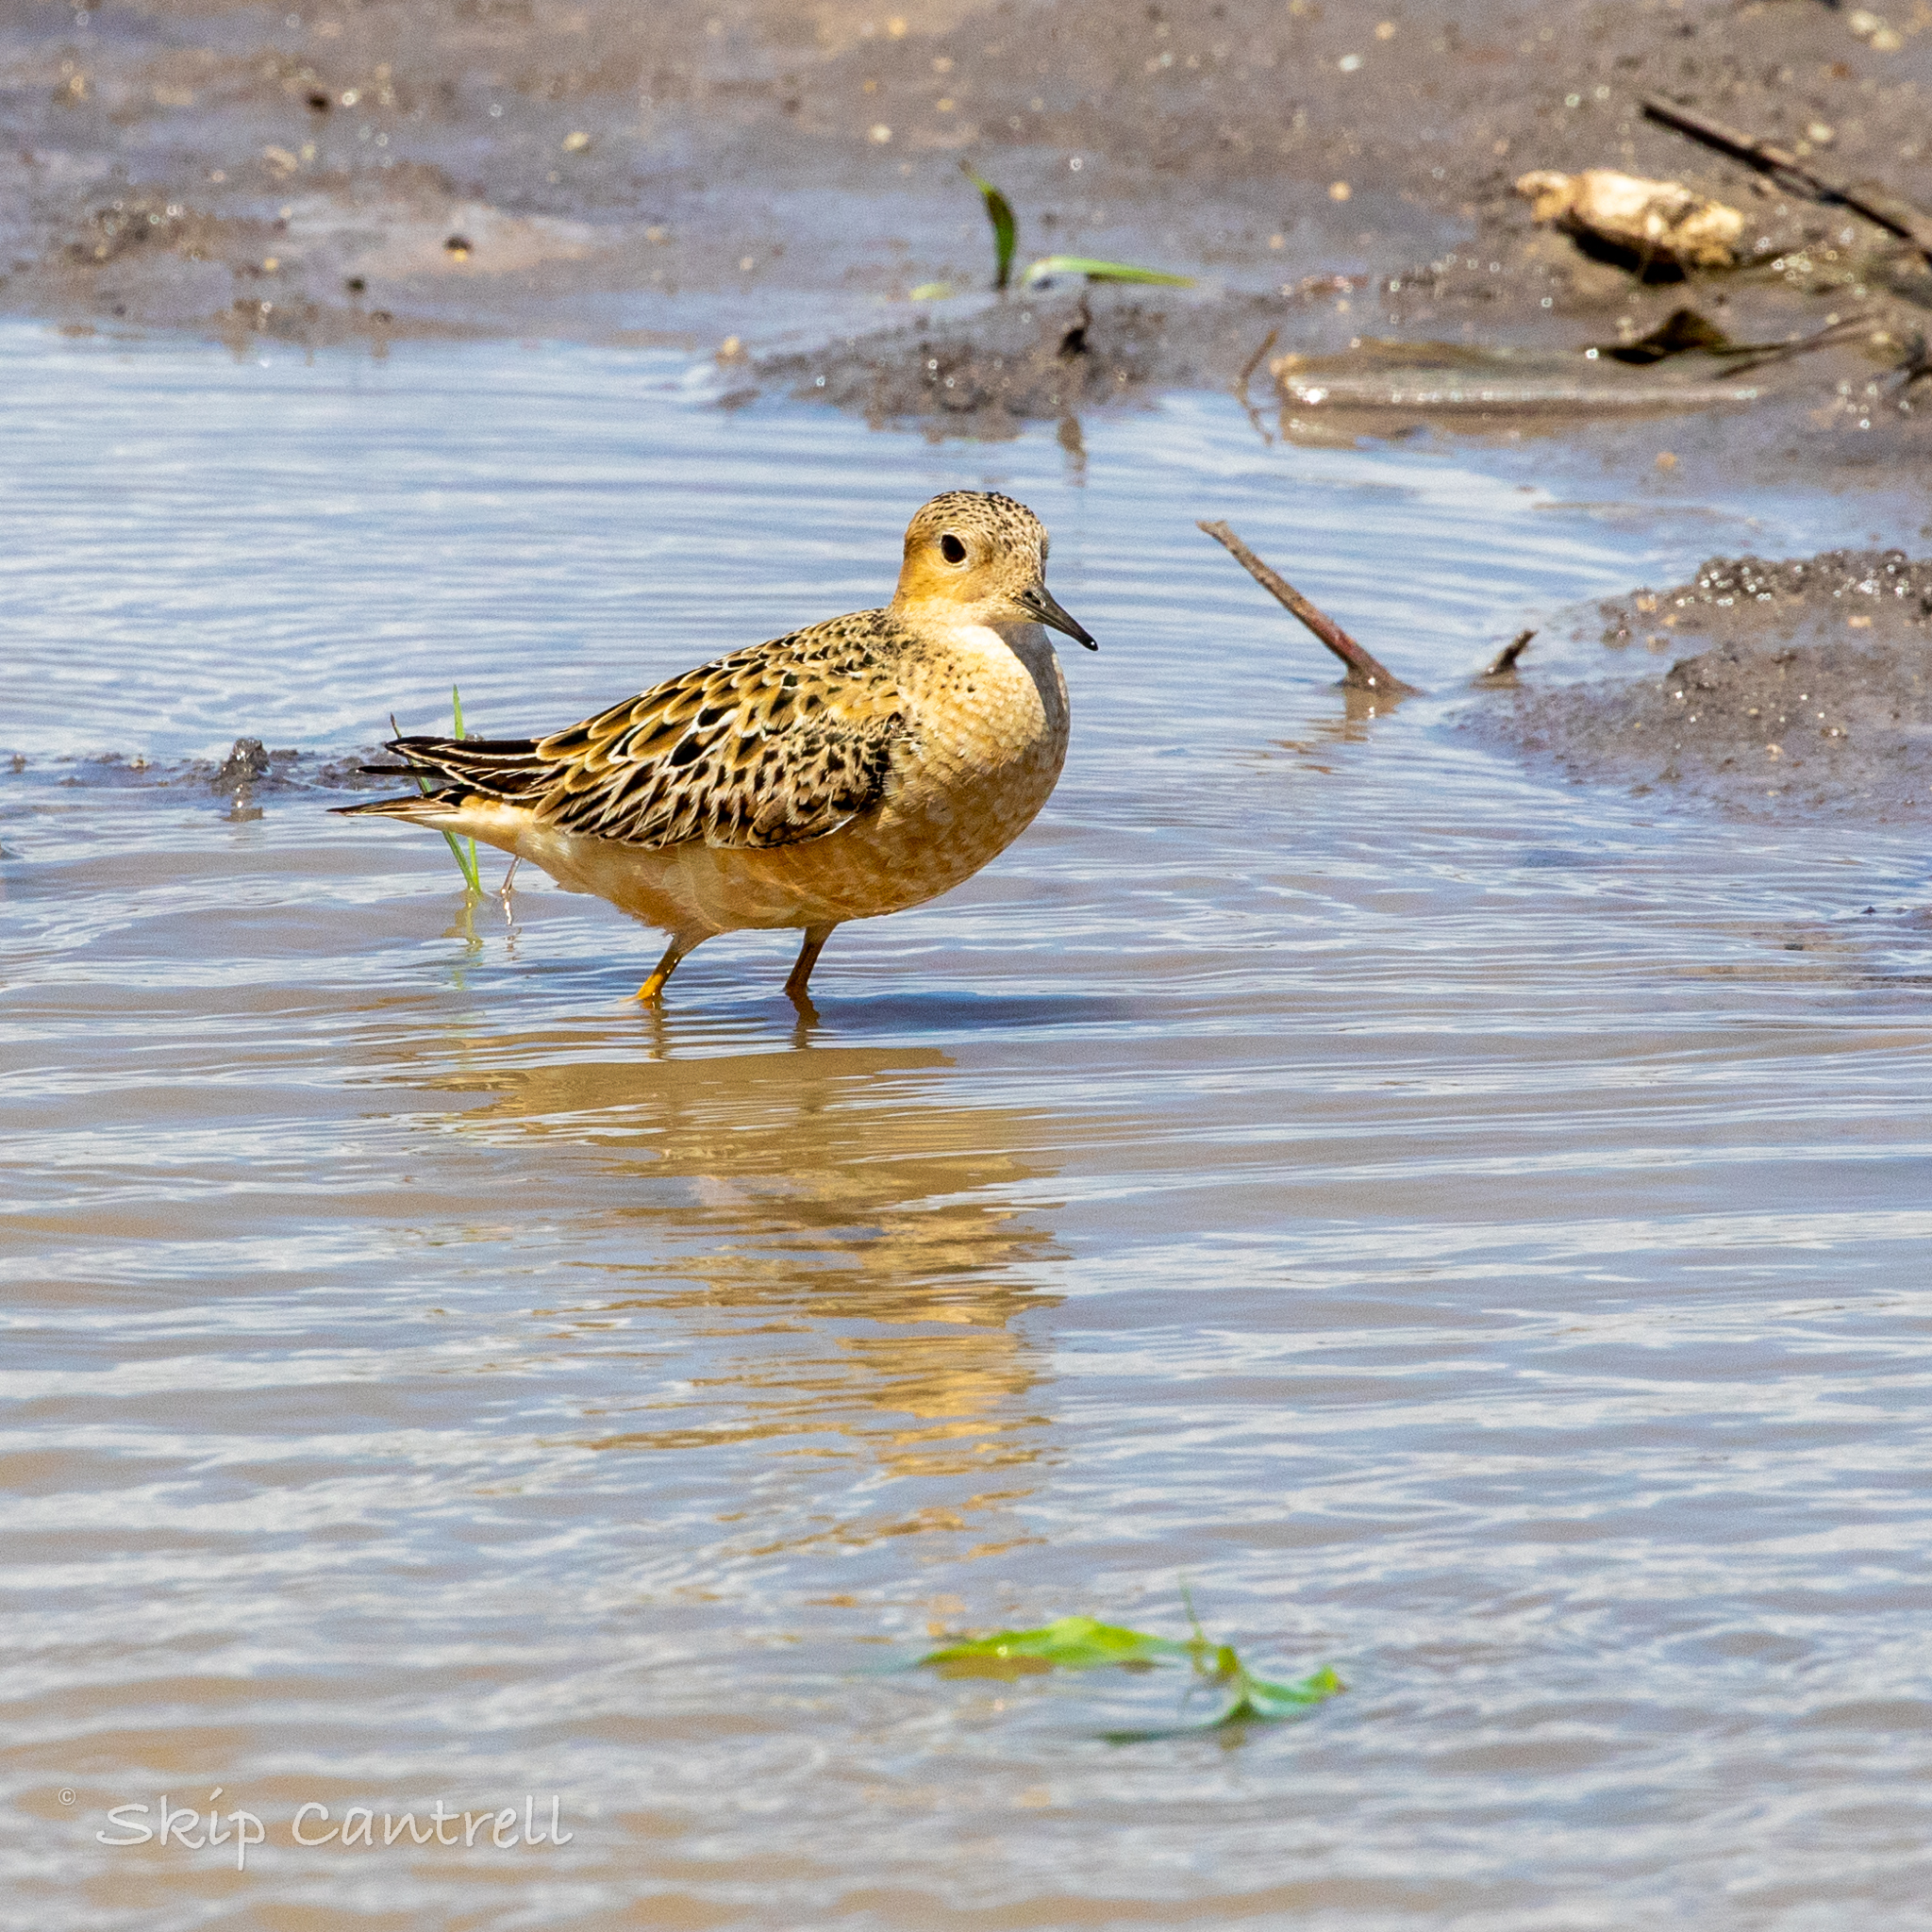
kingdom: Animalia
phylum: Chordata
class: Aves
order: Charadriiformes
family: Scolopacidae
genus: Calidris
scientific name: Calidris subruficollis
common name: Buff-breasted sandpiper
